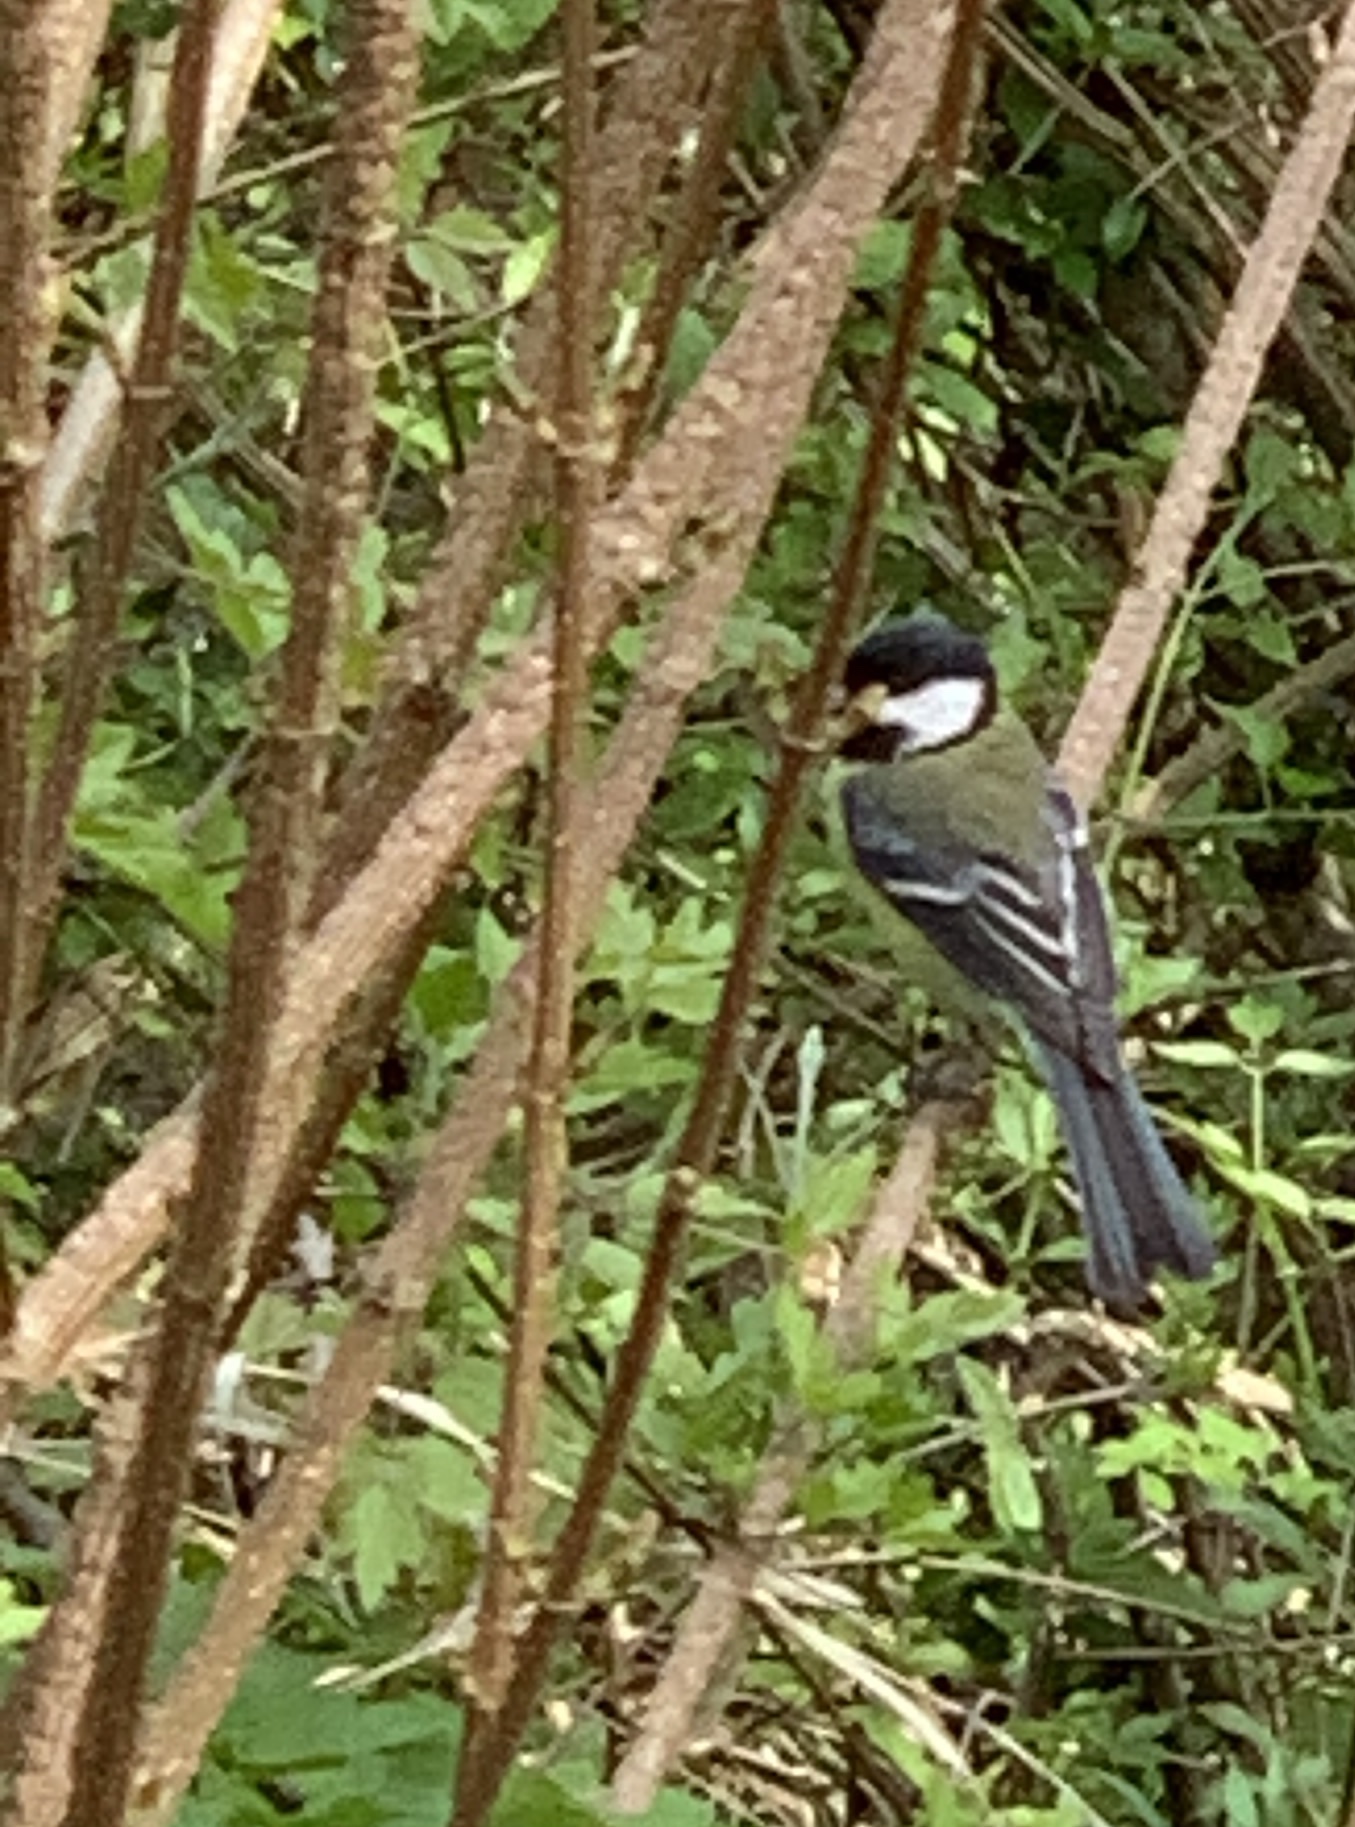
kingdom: Animalia
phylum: Chordata
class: Aves
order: Passeriformes
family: Paridae
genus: Parus
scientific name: Parus major
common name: Great tit
